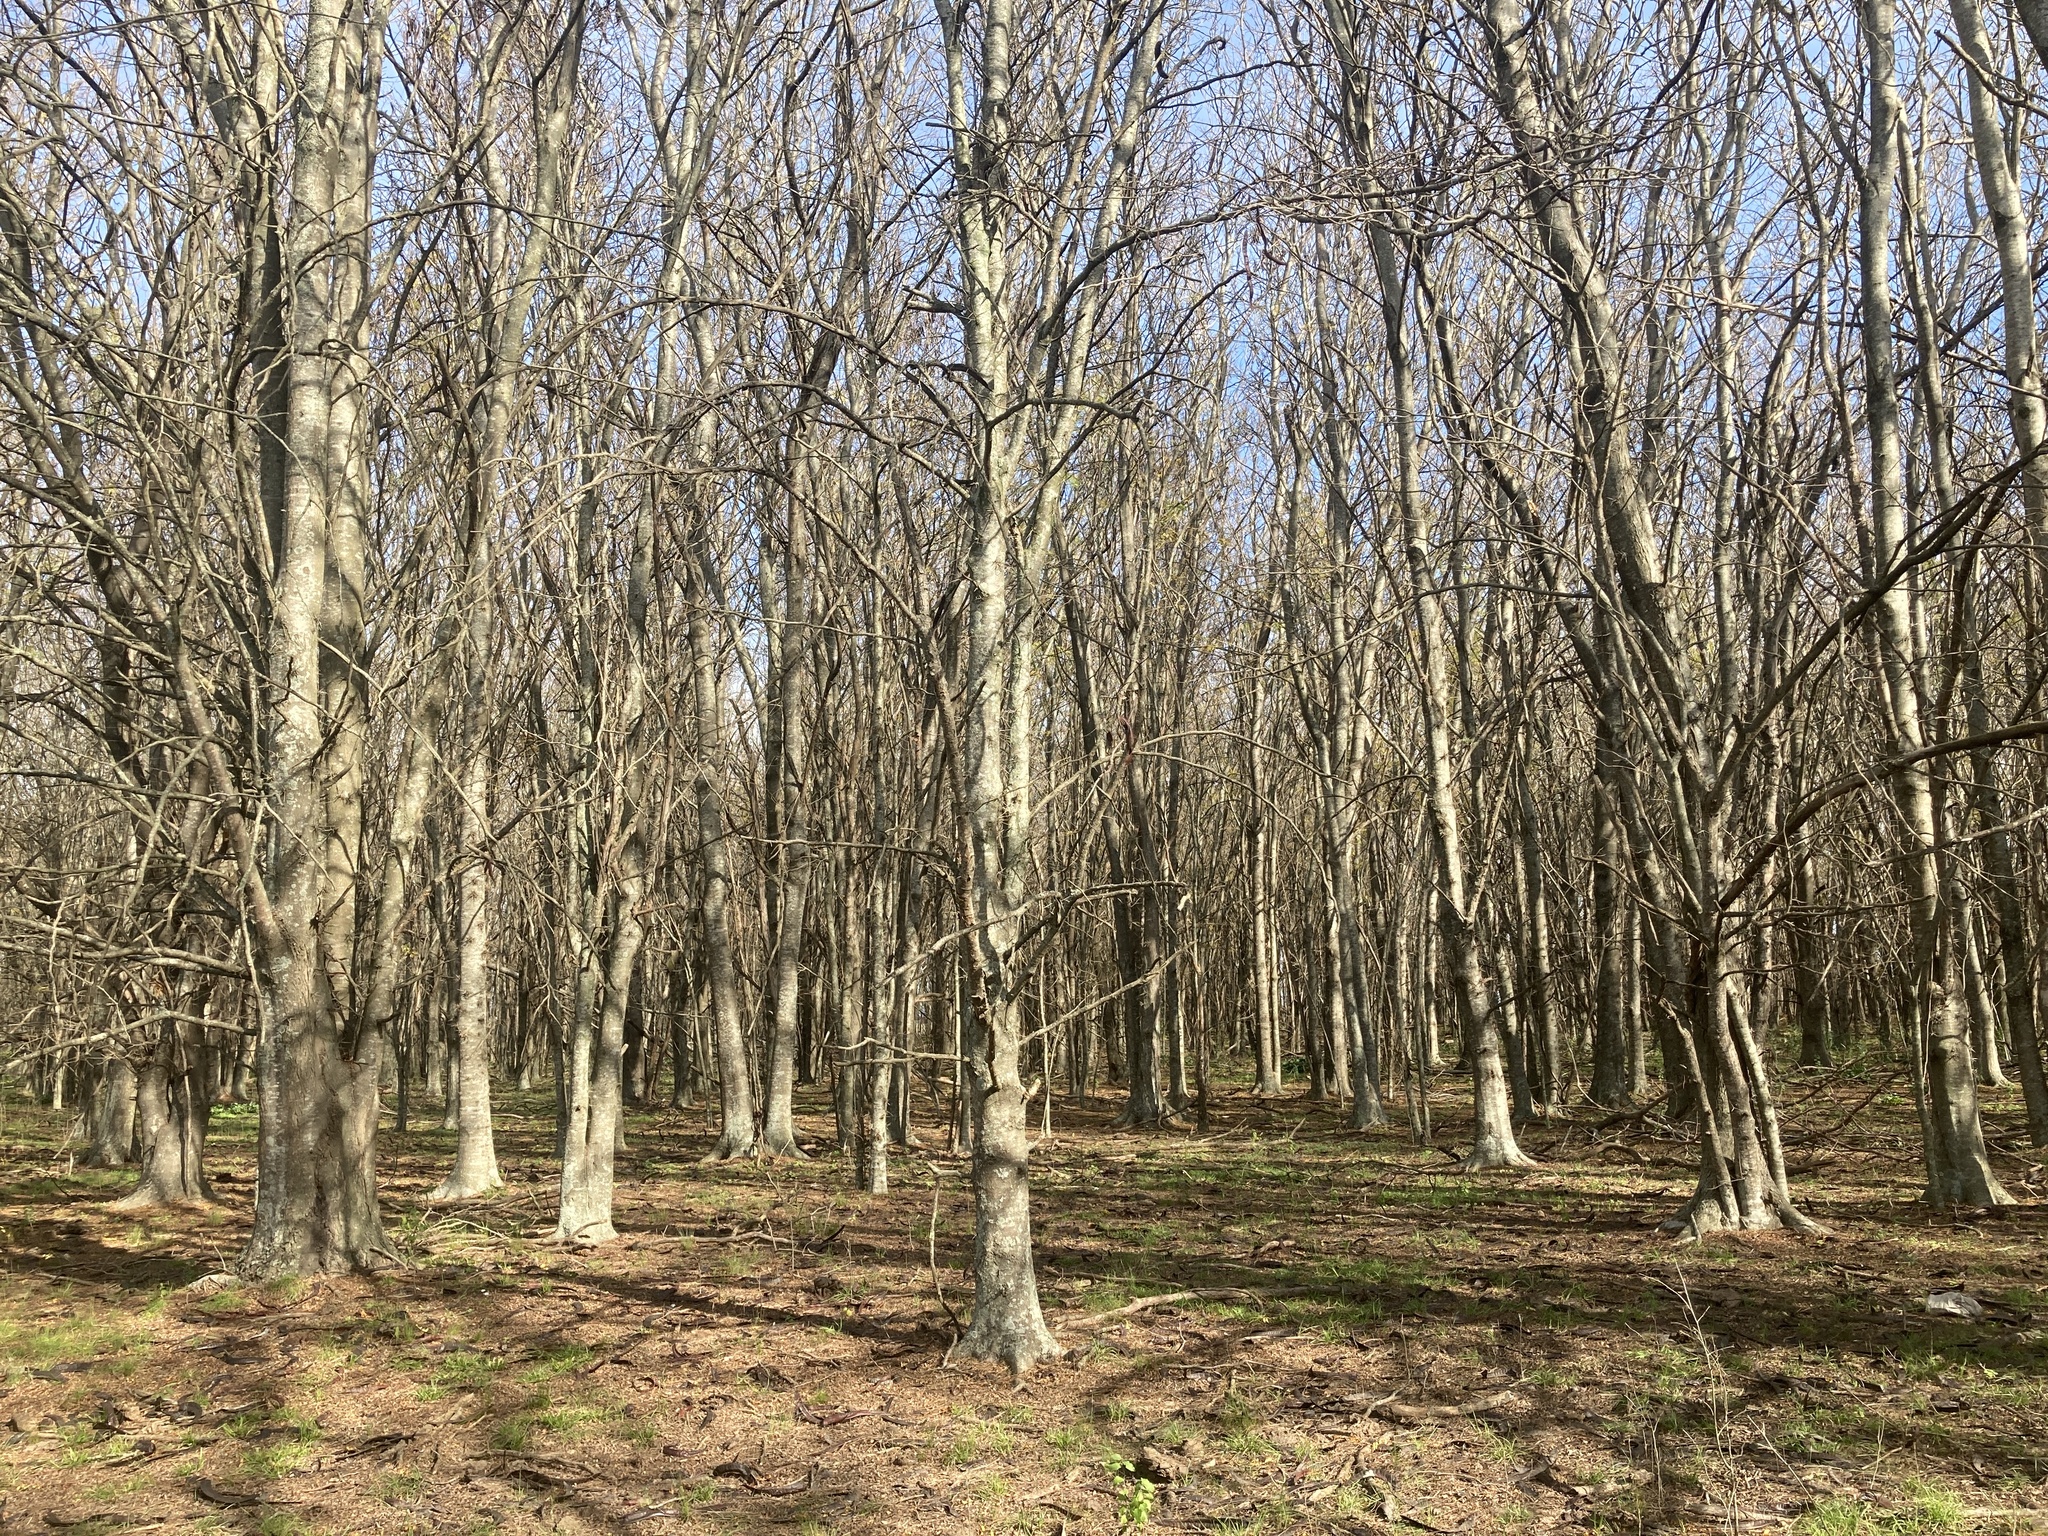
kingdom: Plantae
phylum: Tracheophyta
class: Magnoliopsida
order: Fabales
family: Fabaceae
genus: Gleditsia
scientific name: Gleditsia triacanthos
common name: Common honeylocust
